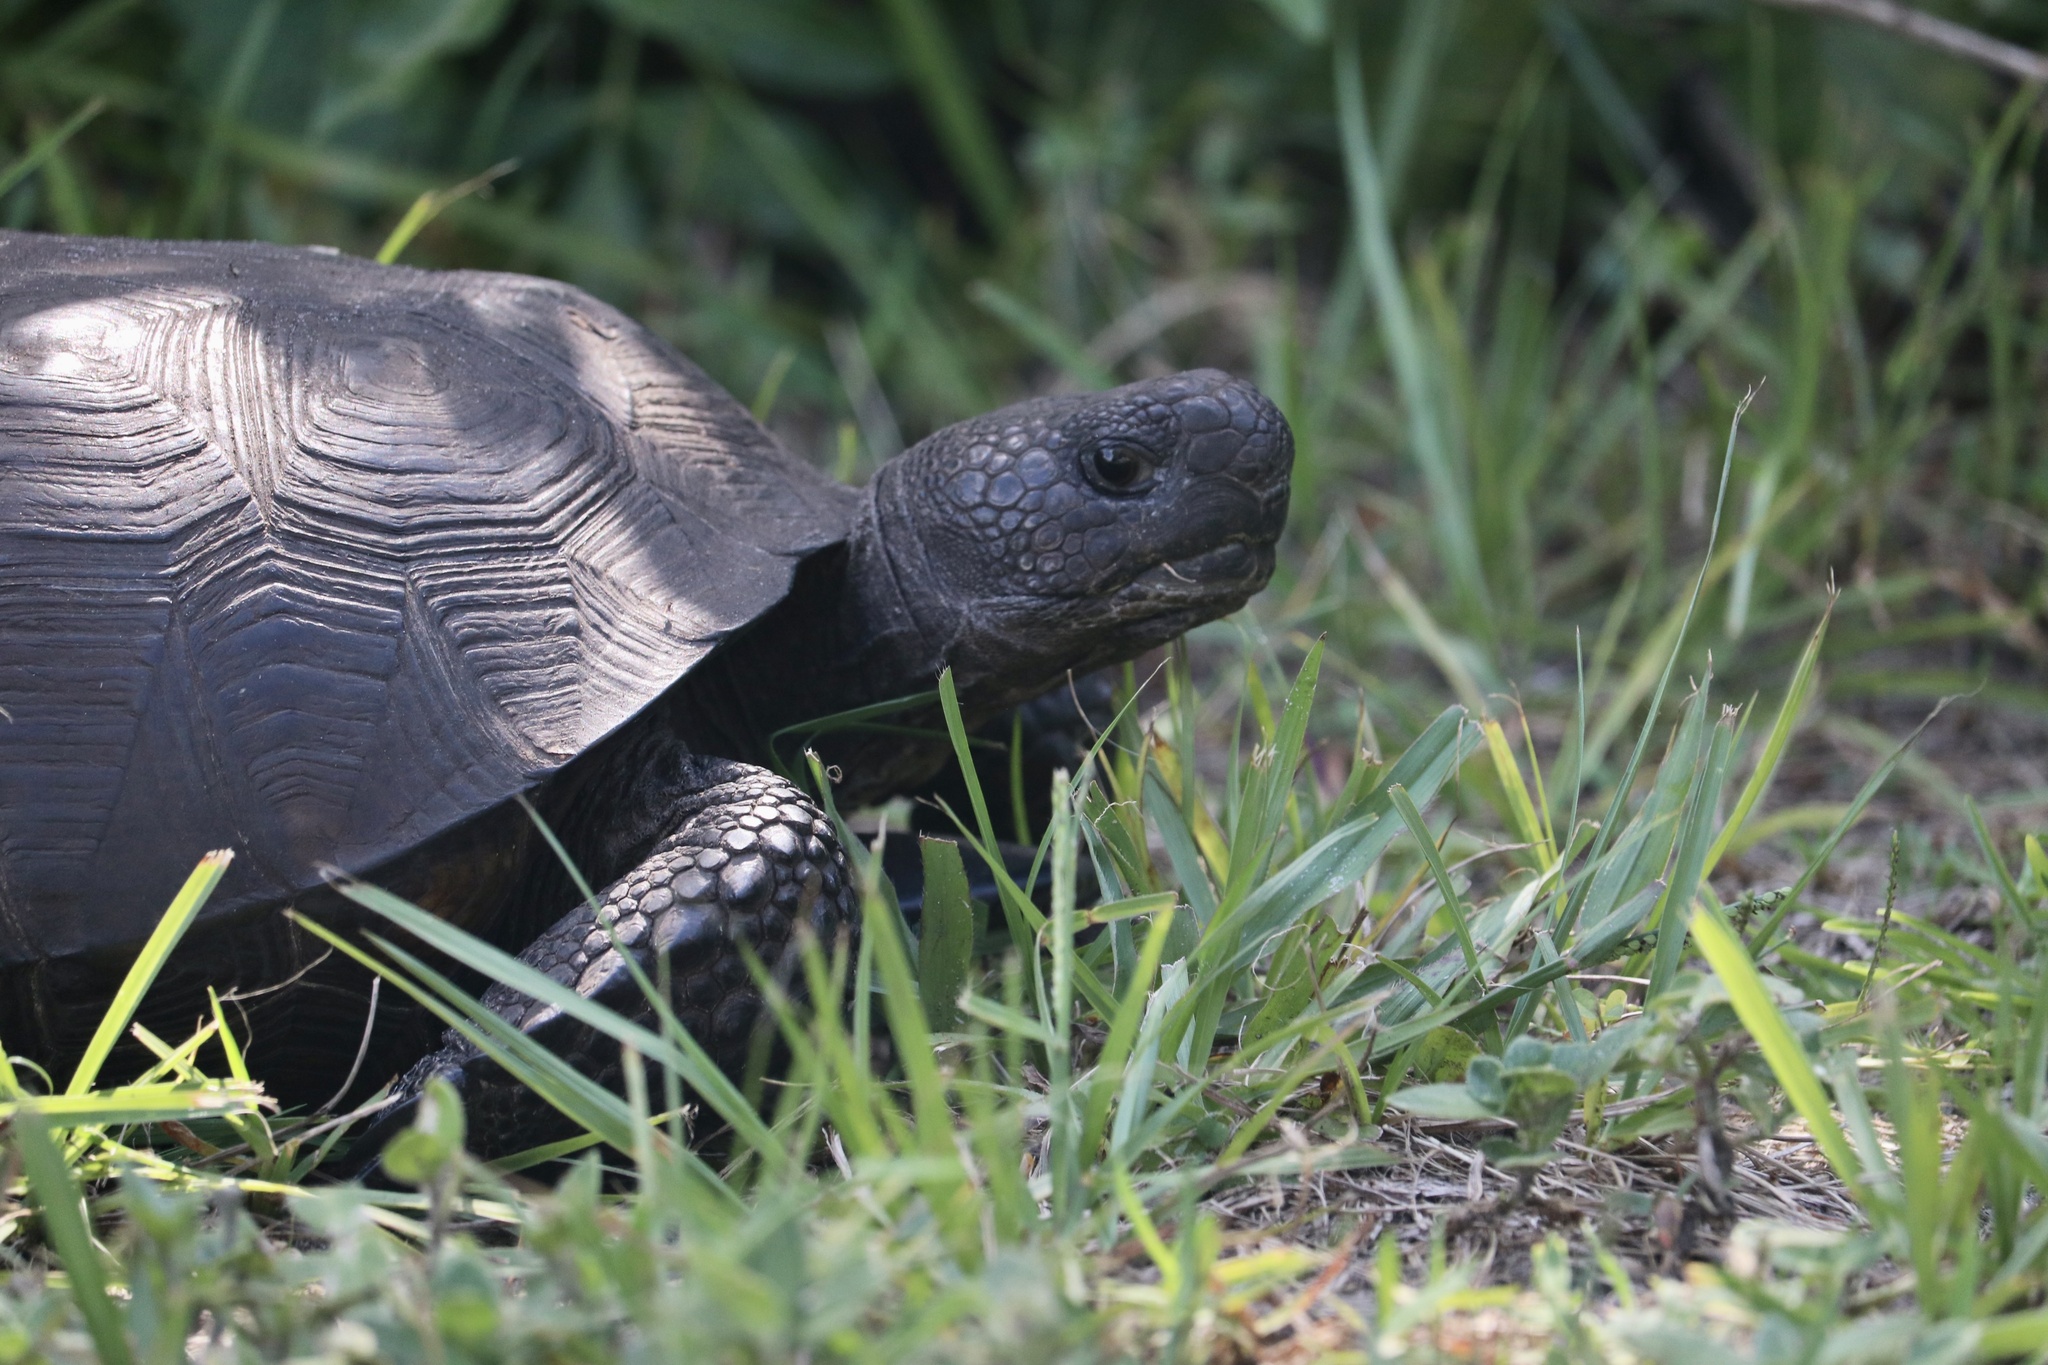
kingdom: Animalia
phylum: Chordata
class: Testudines
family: Testudinidae
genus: Gopherus
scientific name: Gopherus polyphemus
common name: Florida gopher tortoise
